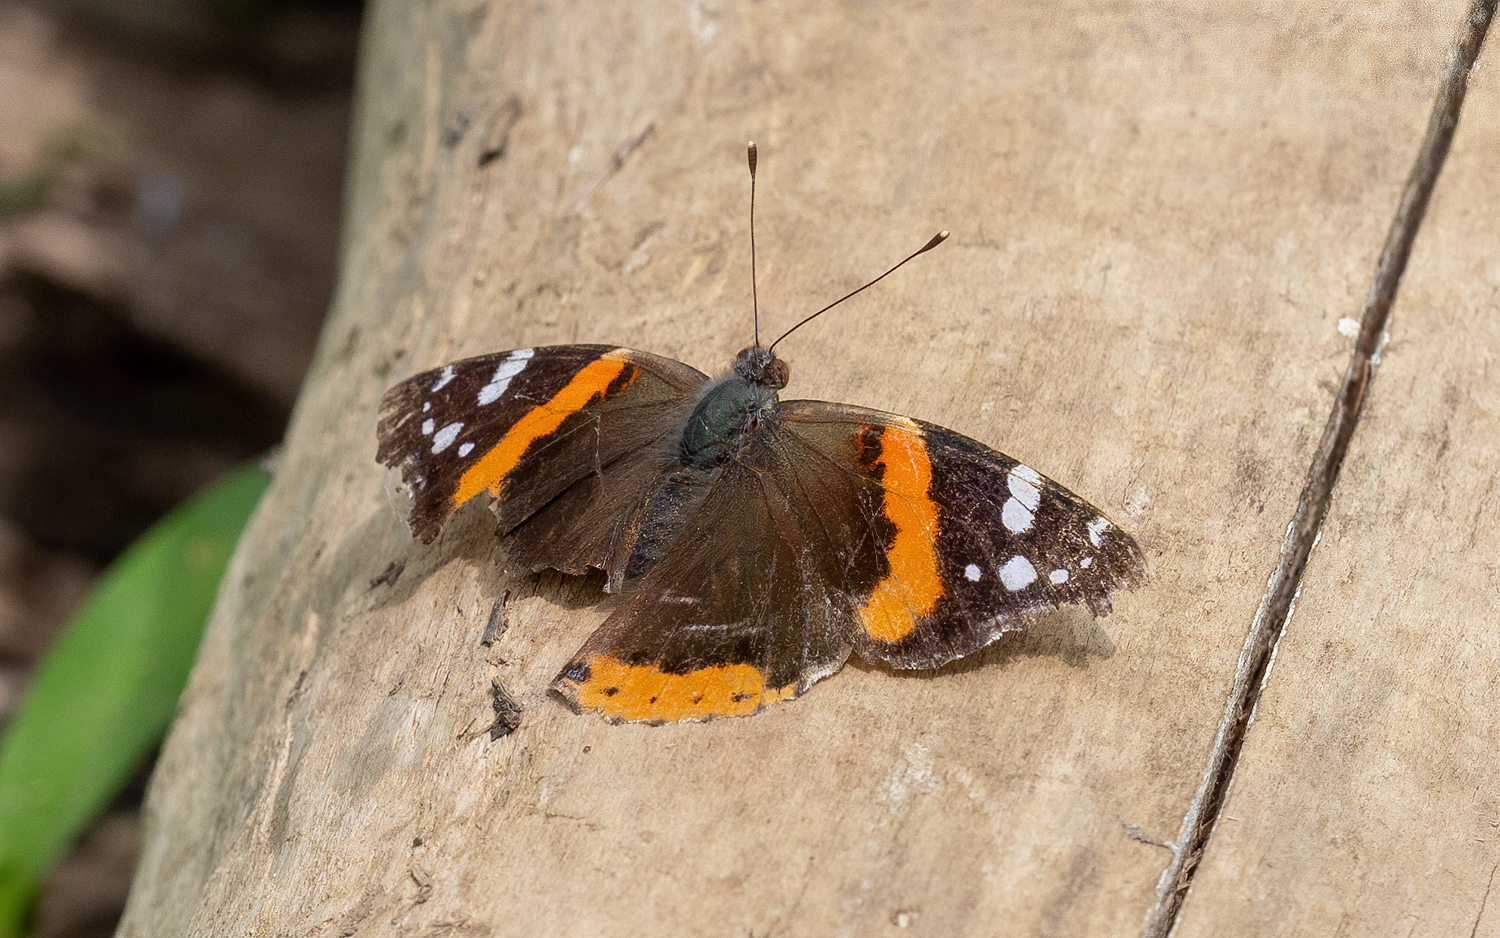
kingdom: Animalia
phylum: Arthropoda
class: Insecta
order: Lepidoptera
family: Nymphalidae
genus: Vanessa
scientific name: Vanessa atalanta
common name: Red admiral
